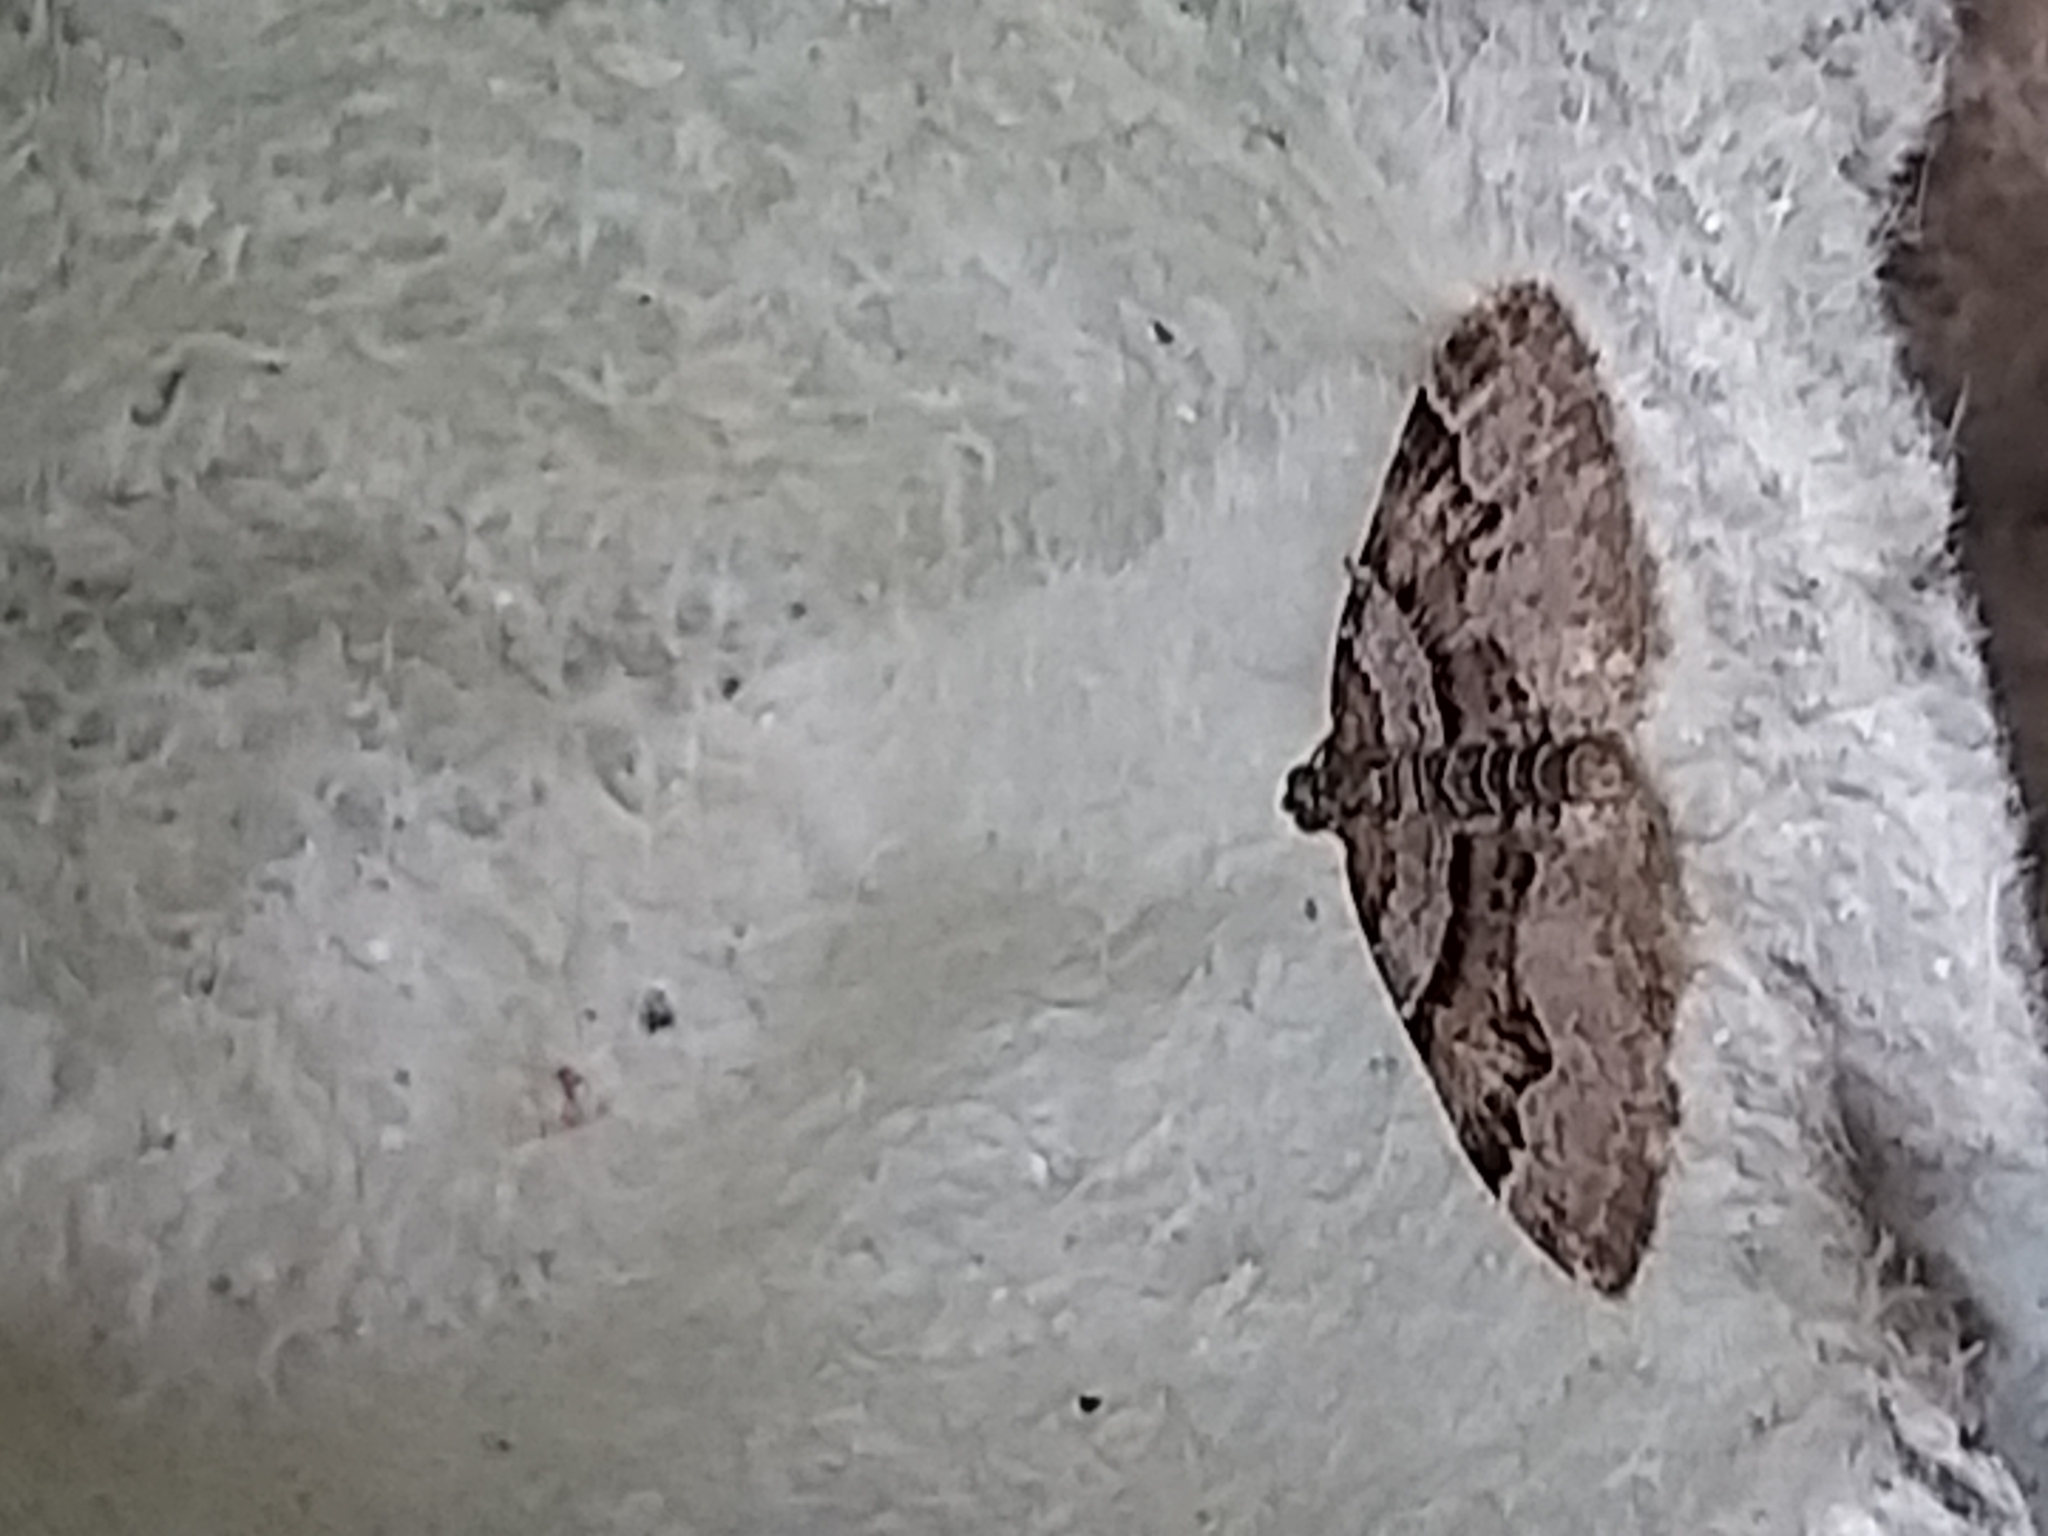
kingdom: Animalia
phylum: Arthropoda
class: Insecta
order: Lepidoptera
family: Geometridae
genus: Xanthorhoe
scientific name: Xanthorhoe designata
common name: Flame carpet
